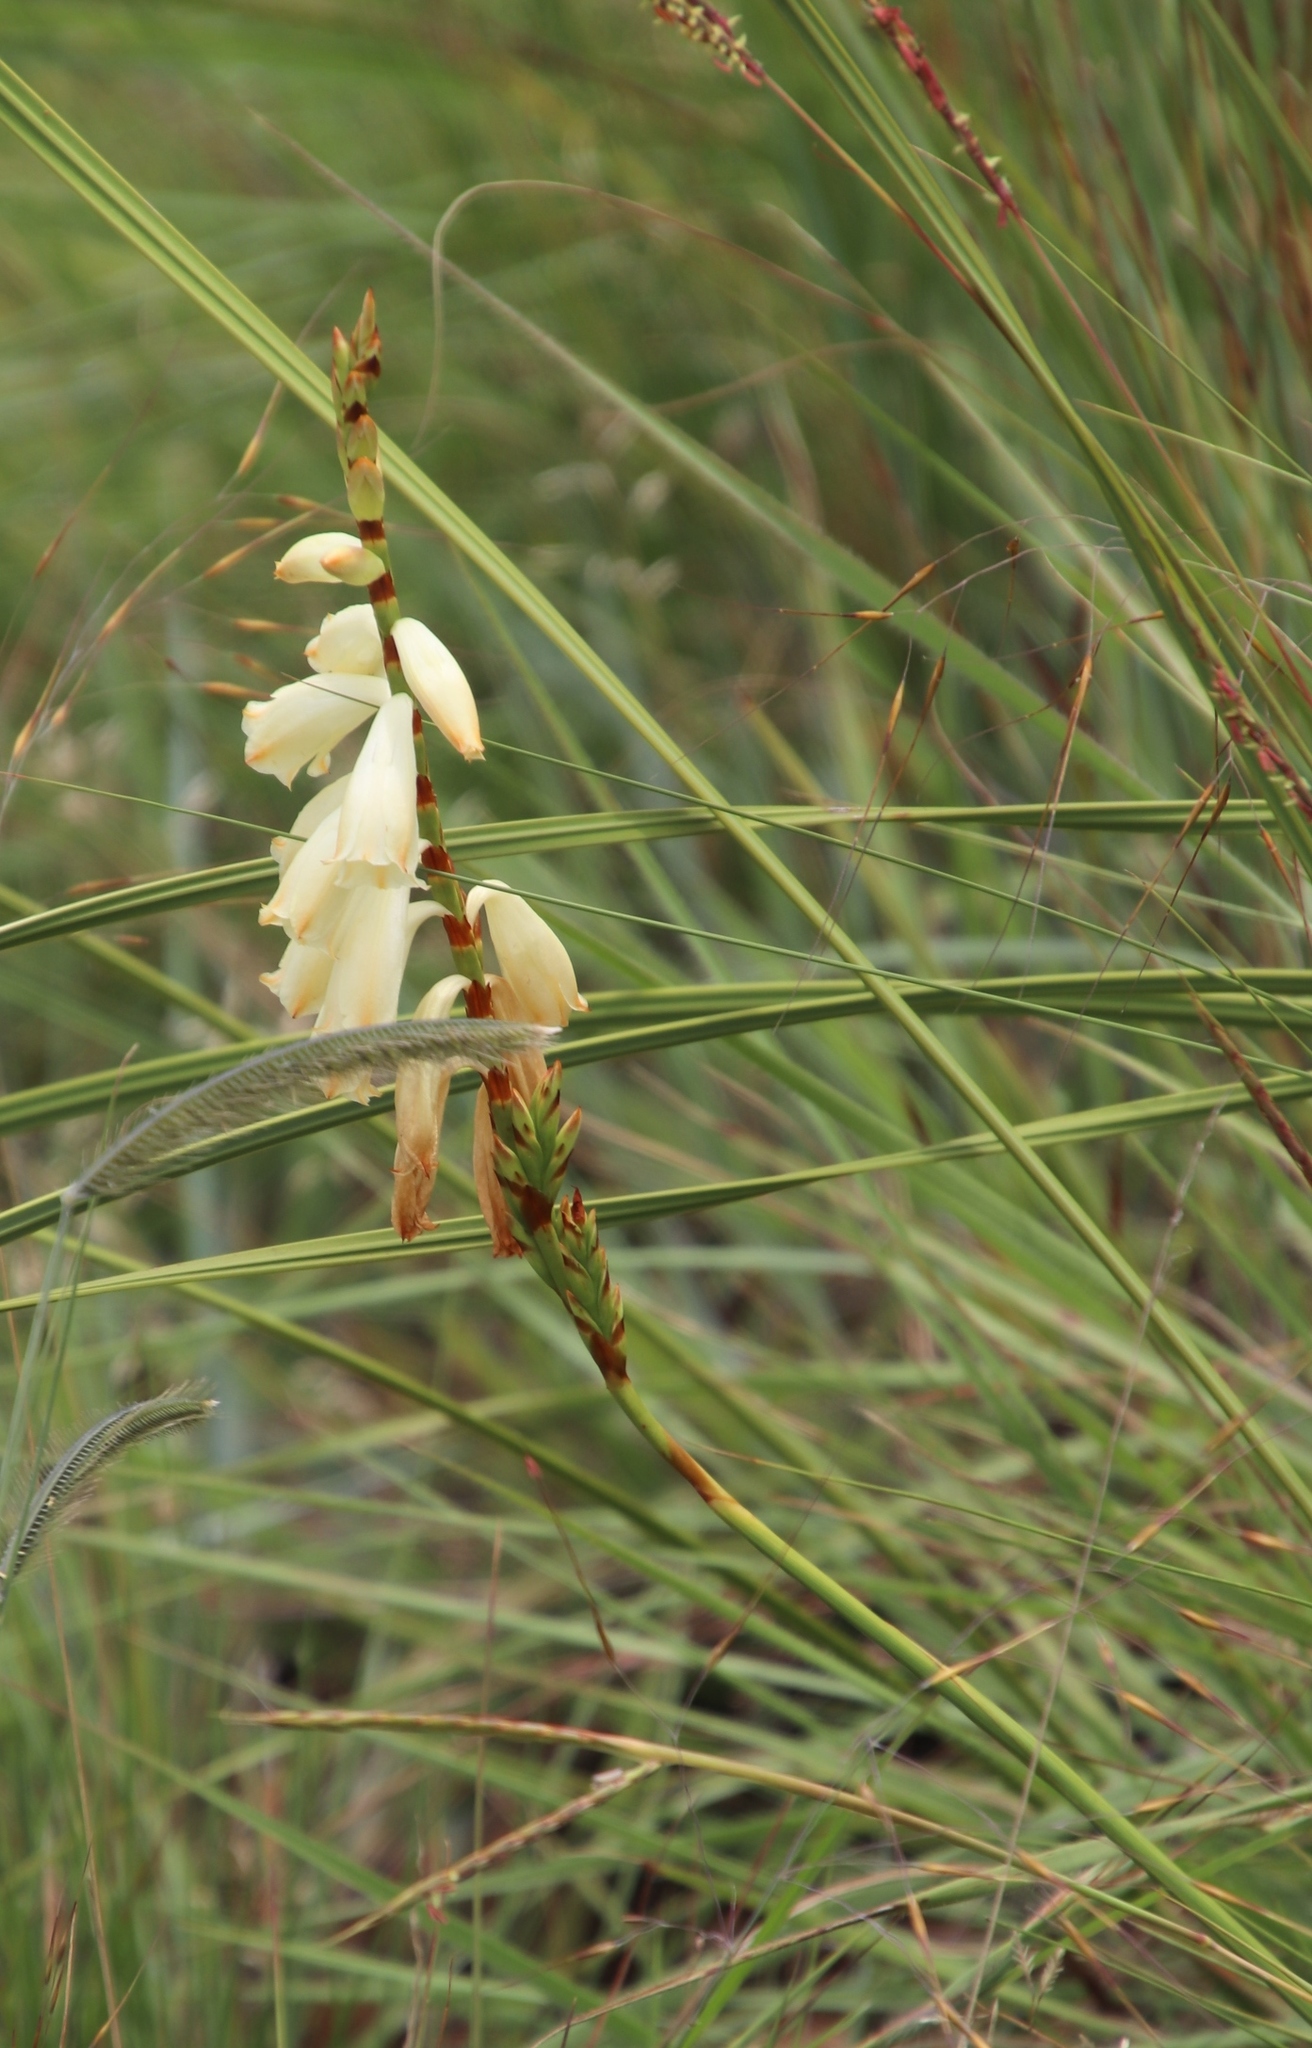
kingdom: Plantae
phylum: Tracheophyta
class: Liliopsida
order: Asparagales
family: Iridaceae
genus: Watsonia
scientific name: Watsonia watsonioides
